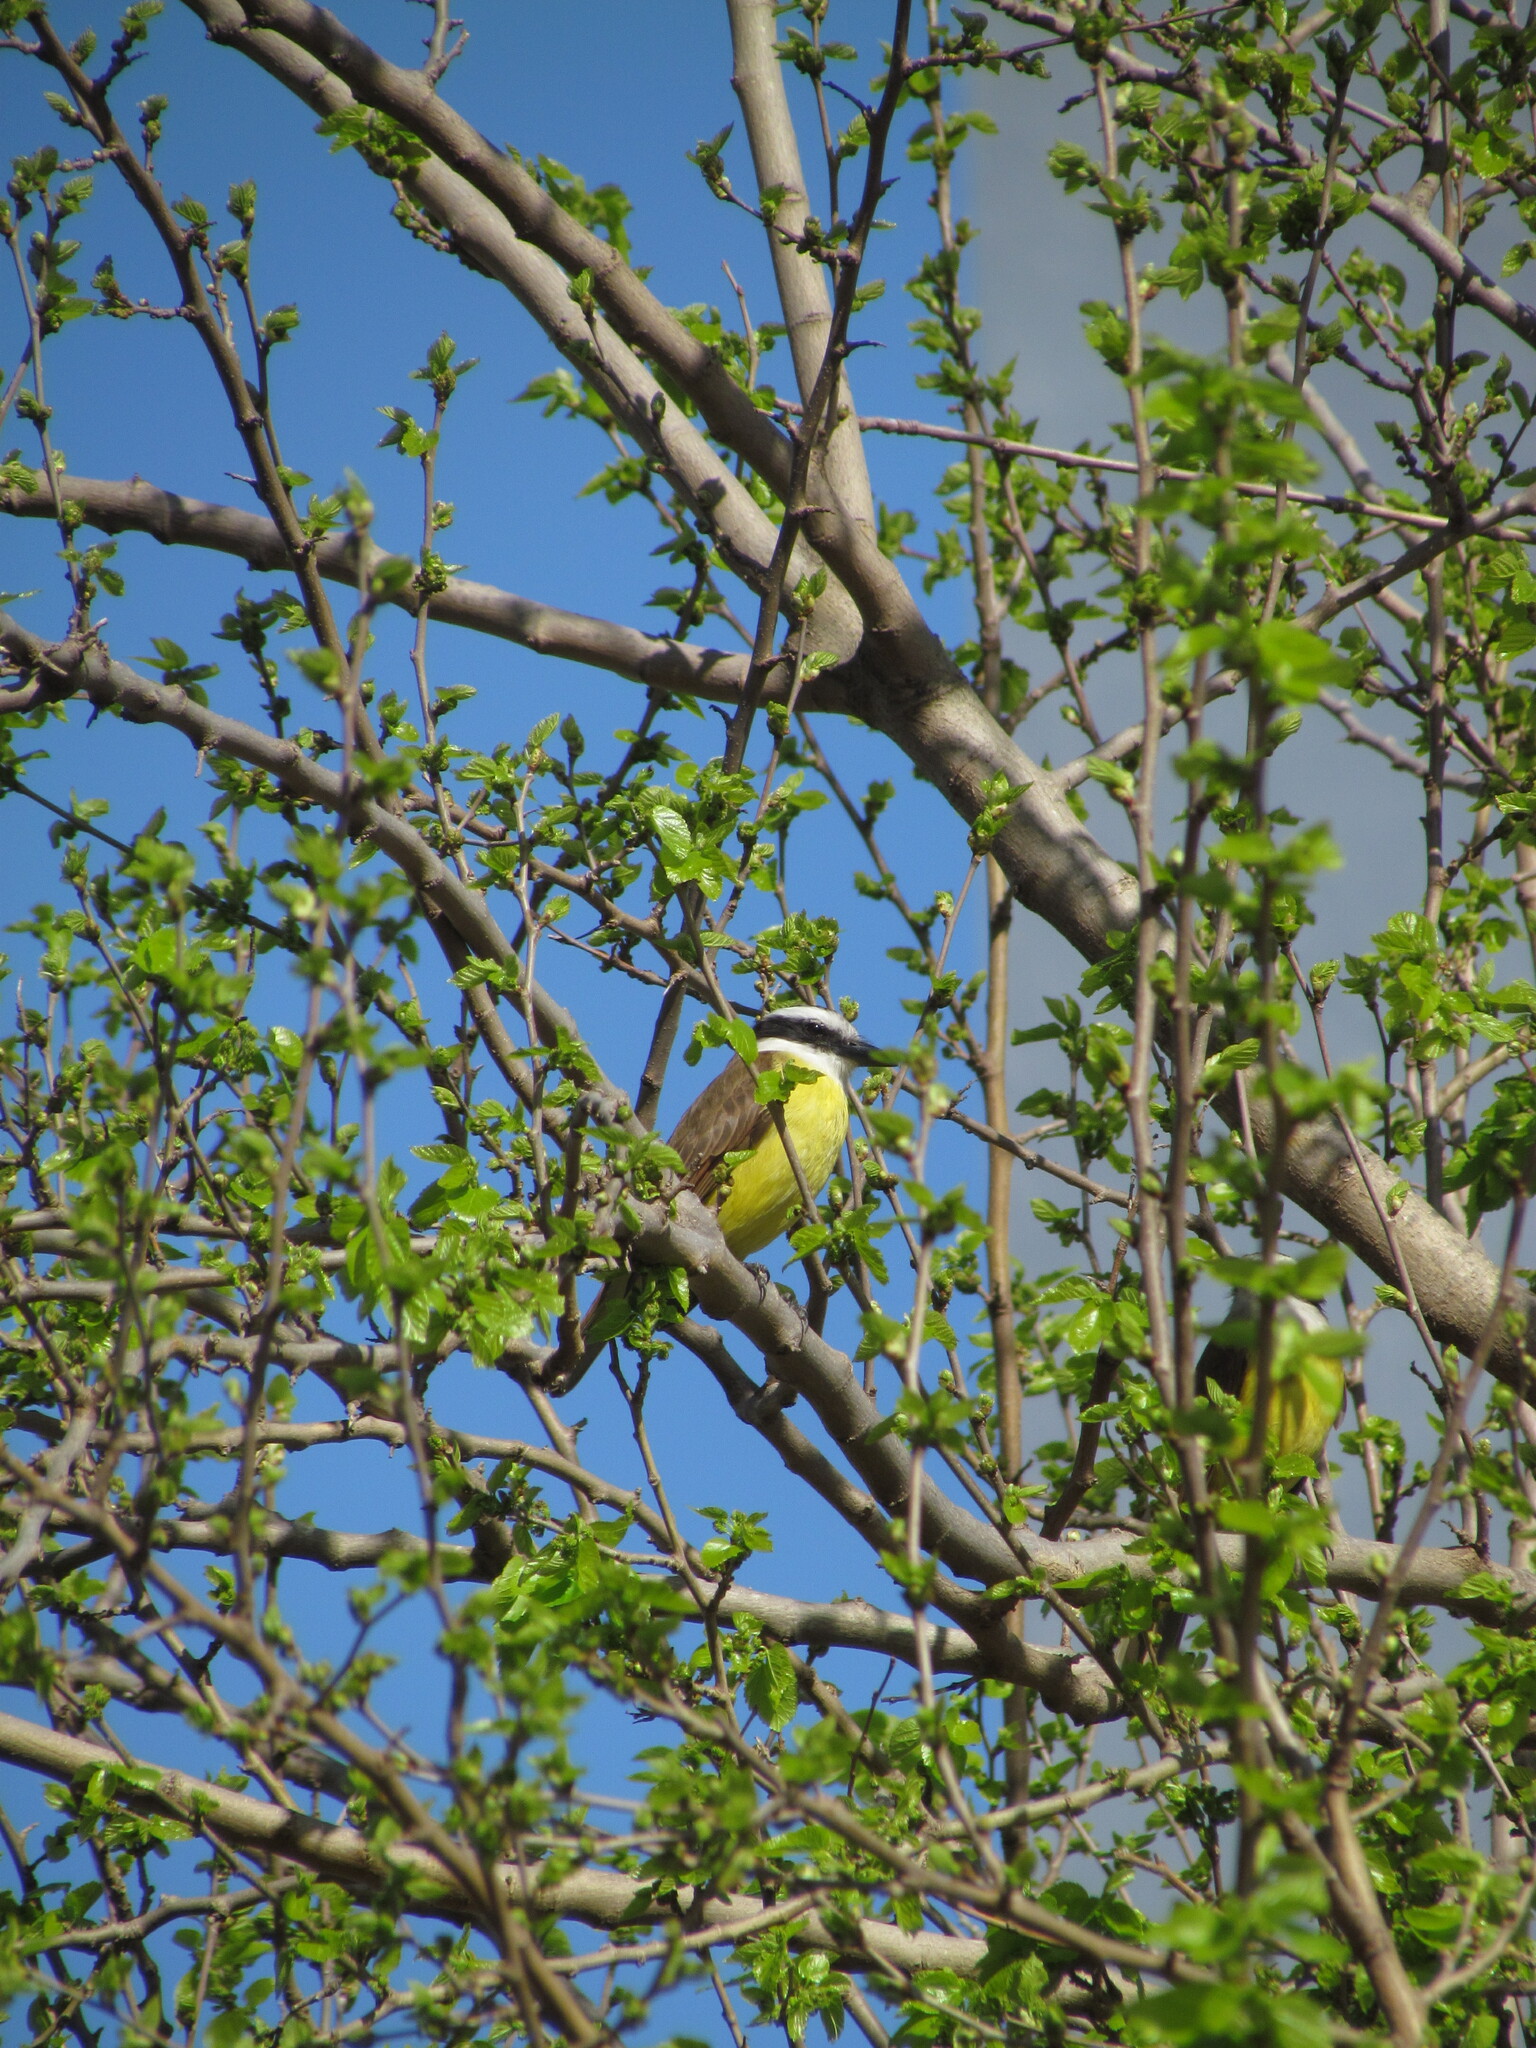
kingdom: Animalia
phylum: Chordata
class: Aves
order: Passeriformes
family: Tyrannidae
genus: Pitangus
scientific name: Pitangus sulphuratus
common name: Great kiskadee
